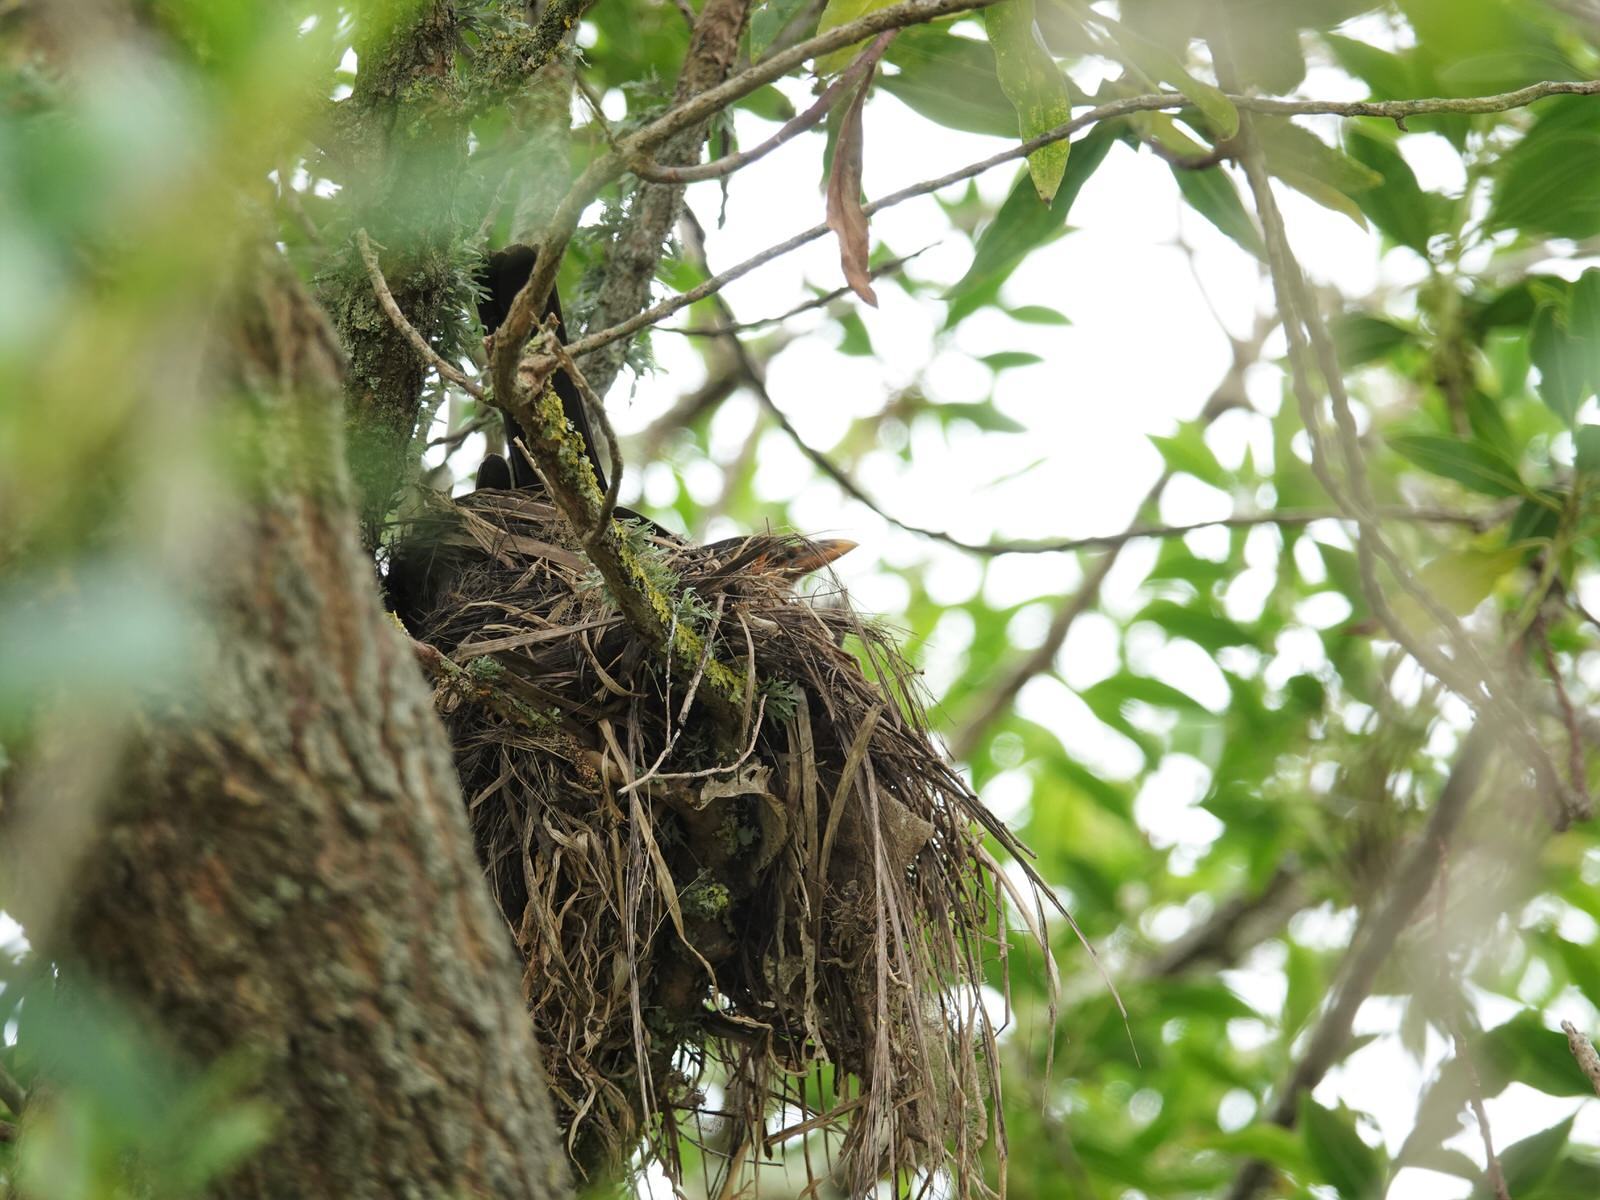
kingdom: Animalia
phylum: Chordata
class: Aves
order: Passeriformes
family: Turdidae
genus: Turdus
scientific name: Turdus merula
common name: Common blackbird
